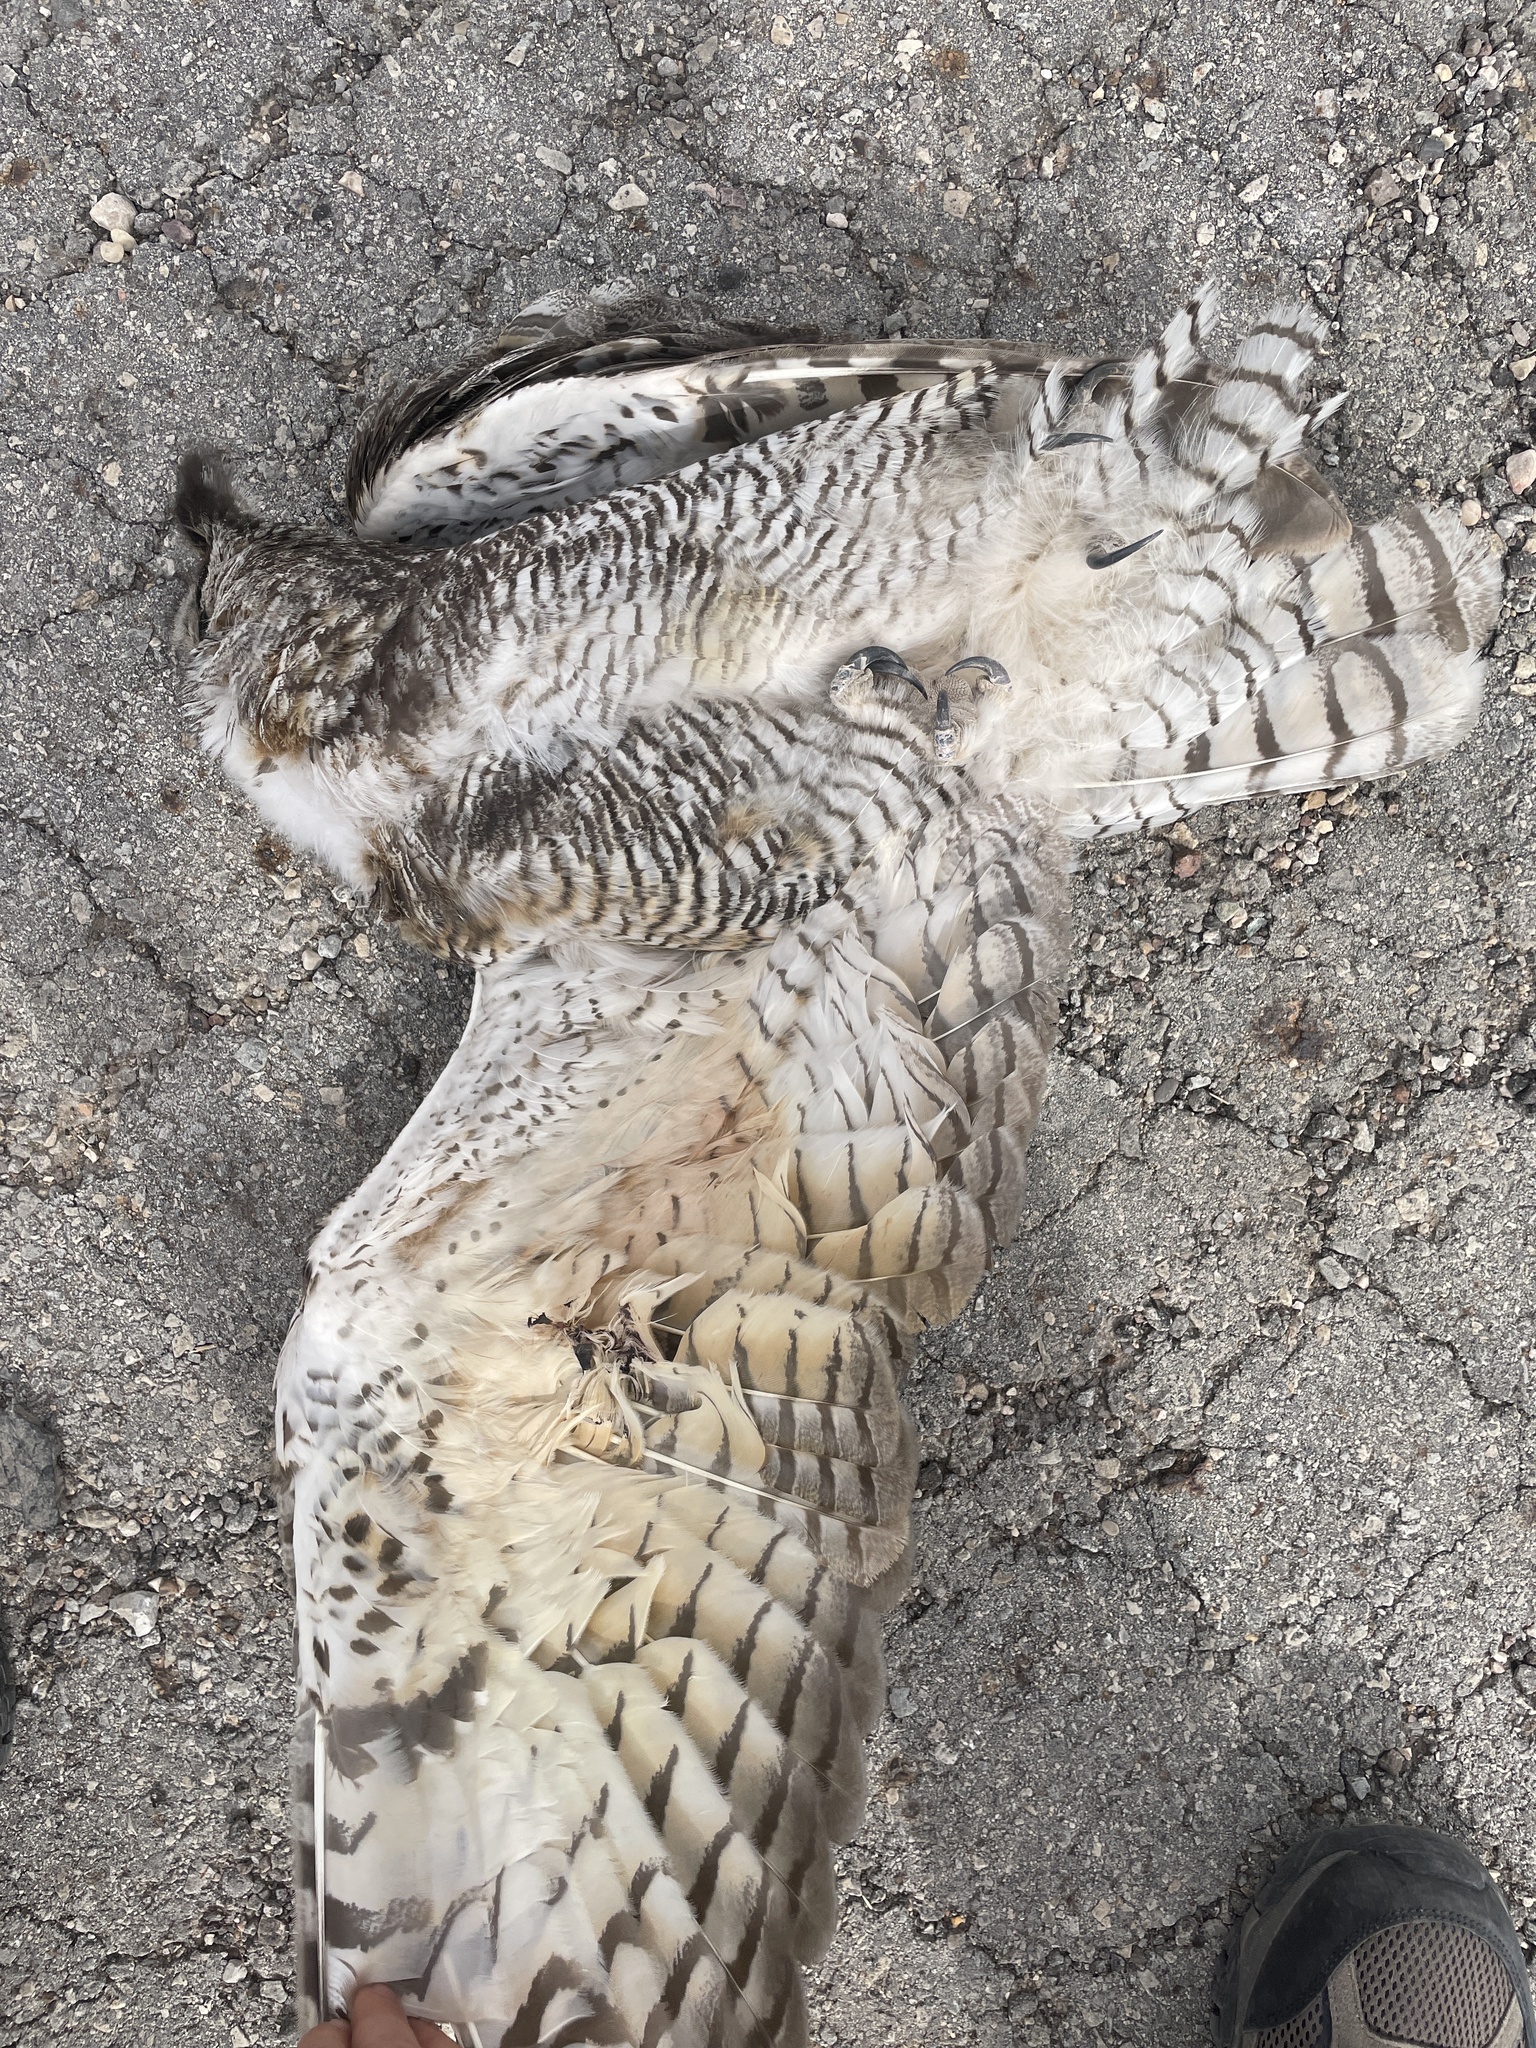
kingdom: Animalia
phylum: Chordata
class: Aves
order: Strigiformes
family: Strigidae
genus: Bubo
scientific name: Bubo virginianus
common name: Great horned owl
